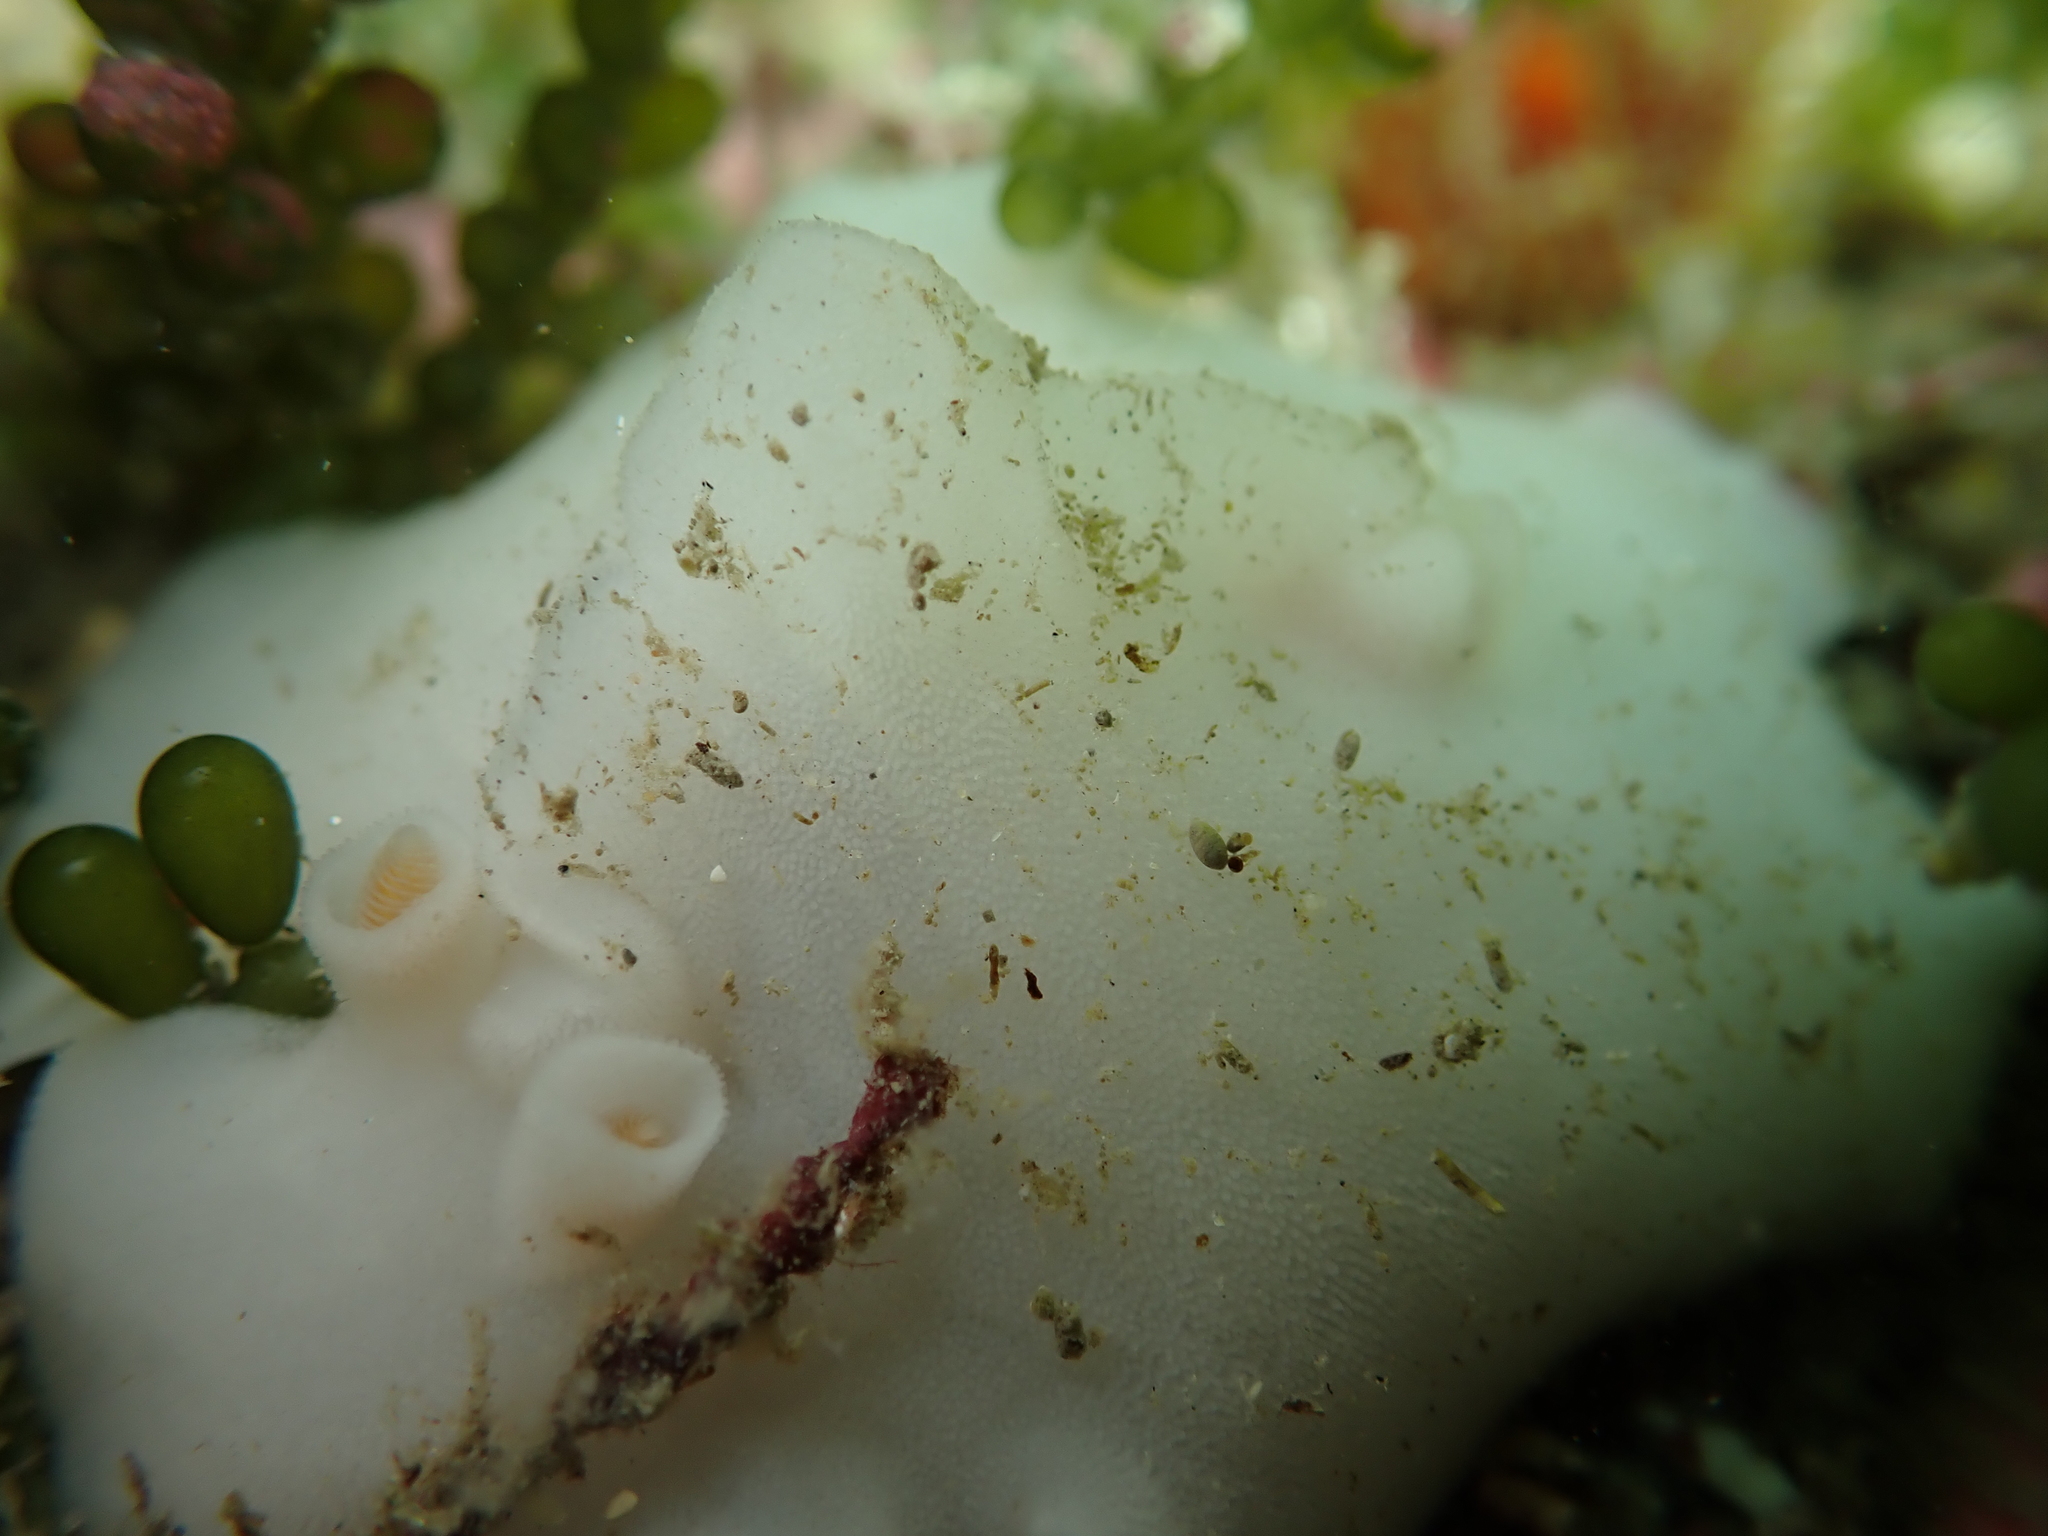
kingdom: Animalia
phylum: Mollusca
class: Gastropoda
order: Nudibranchia
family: Discodorididae
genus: Atagema
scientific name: Atagema carinata
